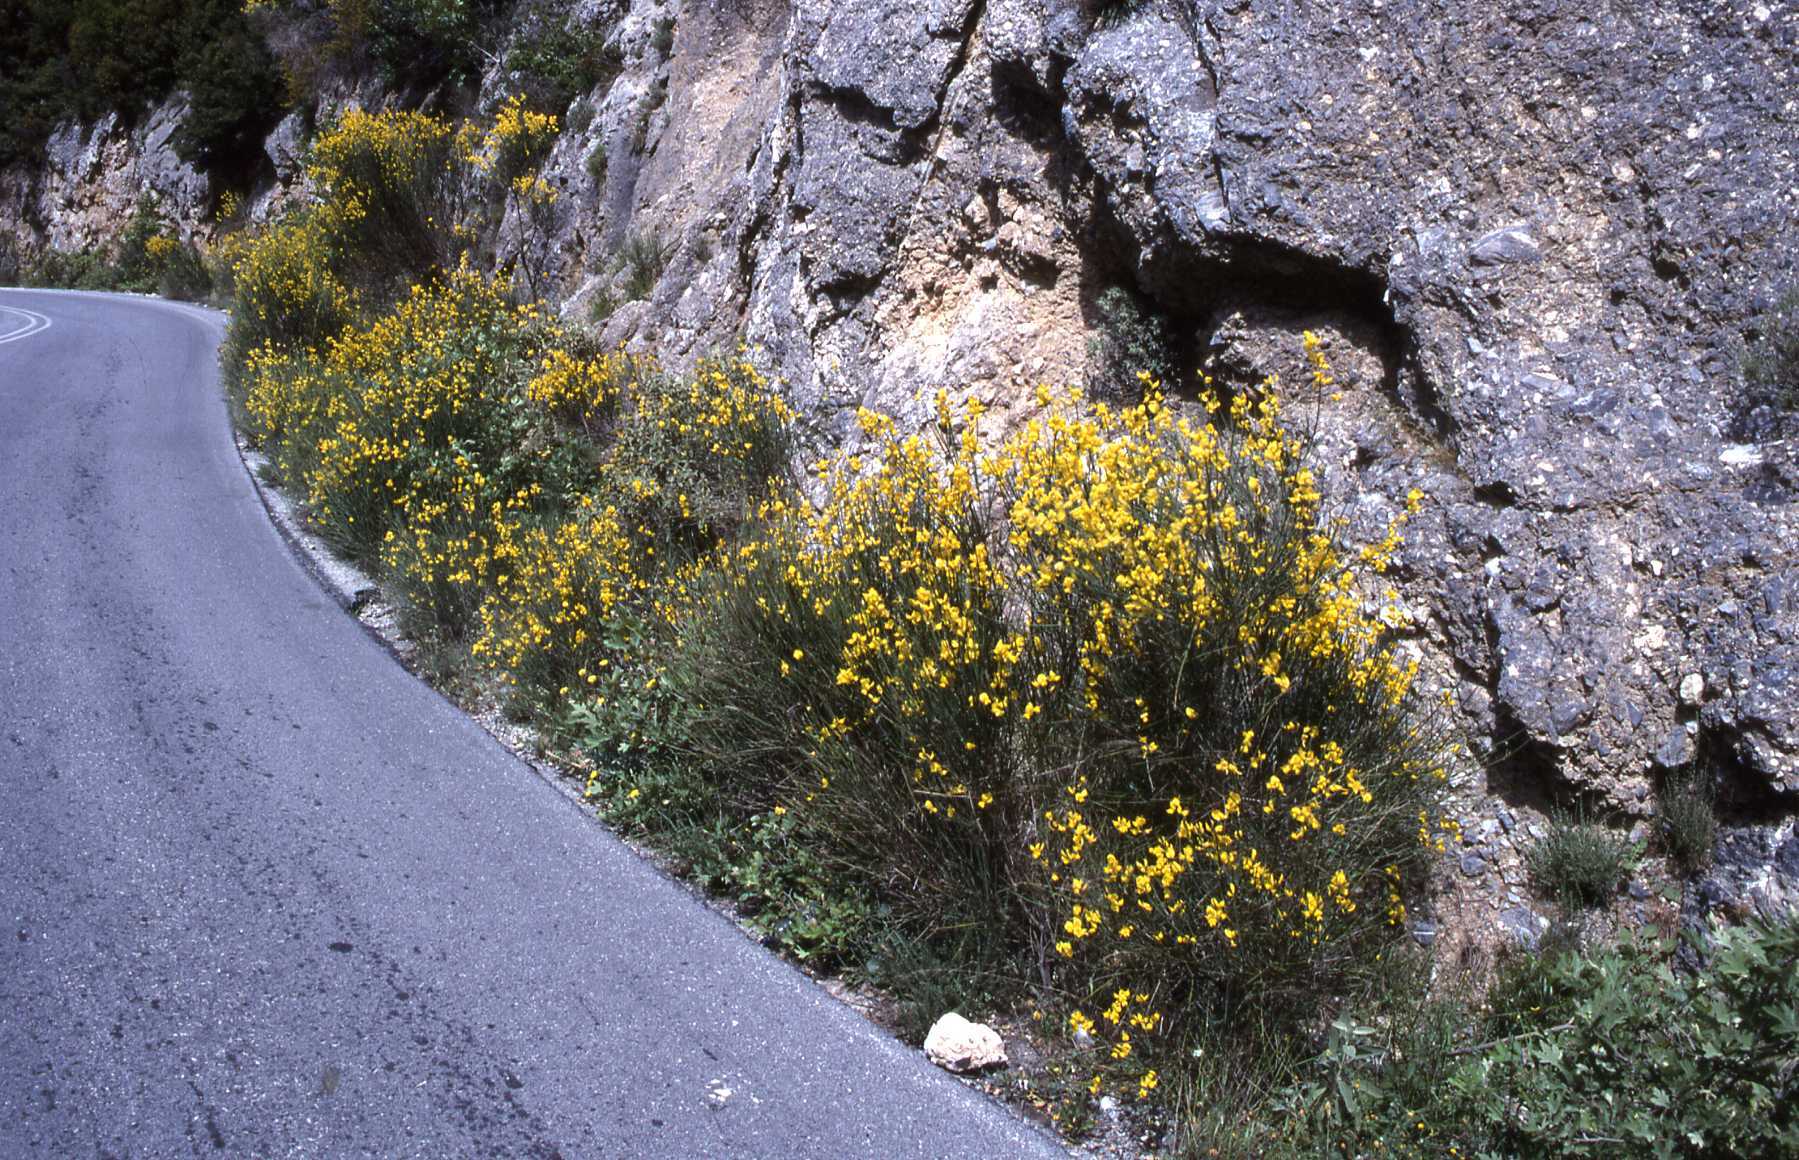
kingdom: Plantae
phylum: Tracheophyta
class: Magnoliopsida
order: Fabales
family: Fabaceae
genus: Spartium
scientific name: Spartium junceum
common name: Spanish broom
